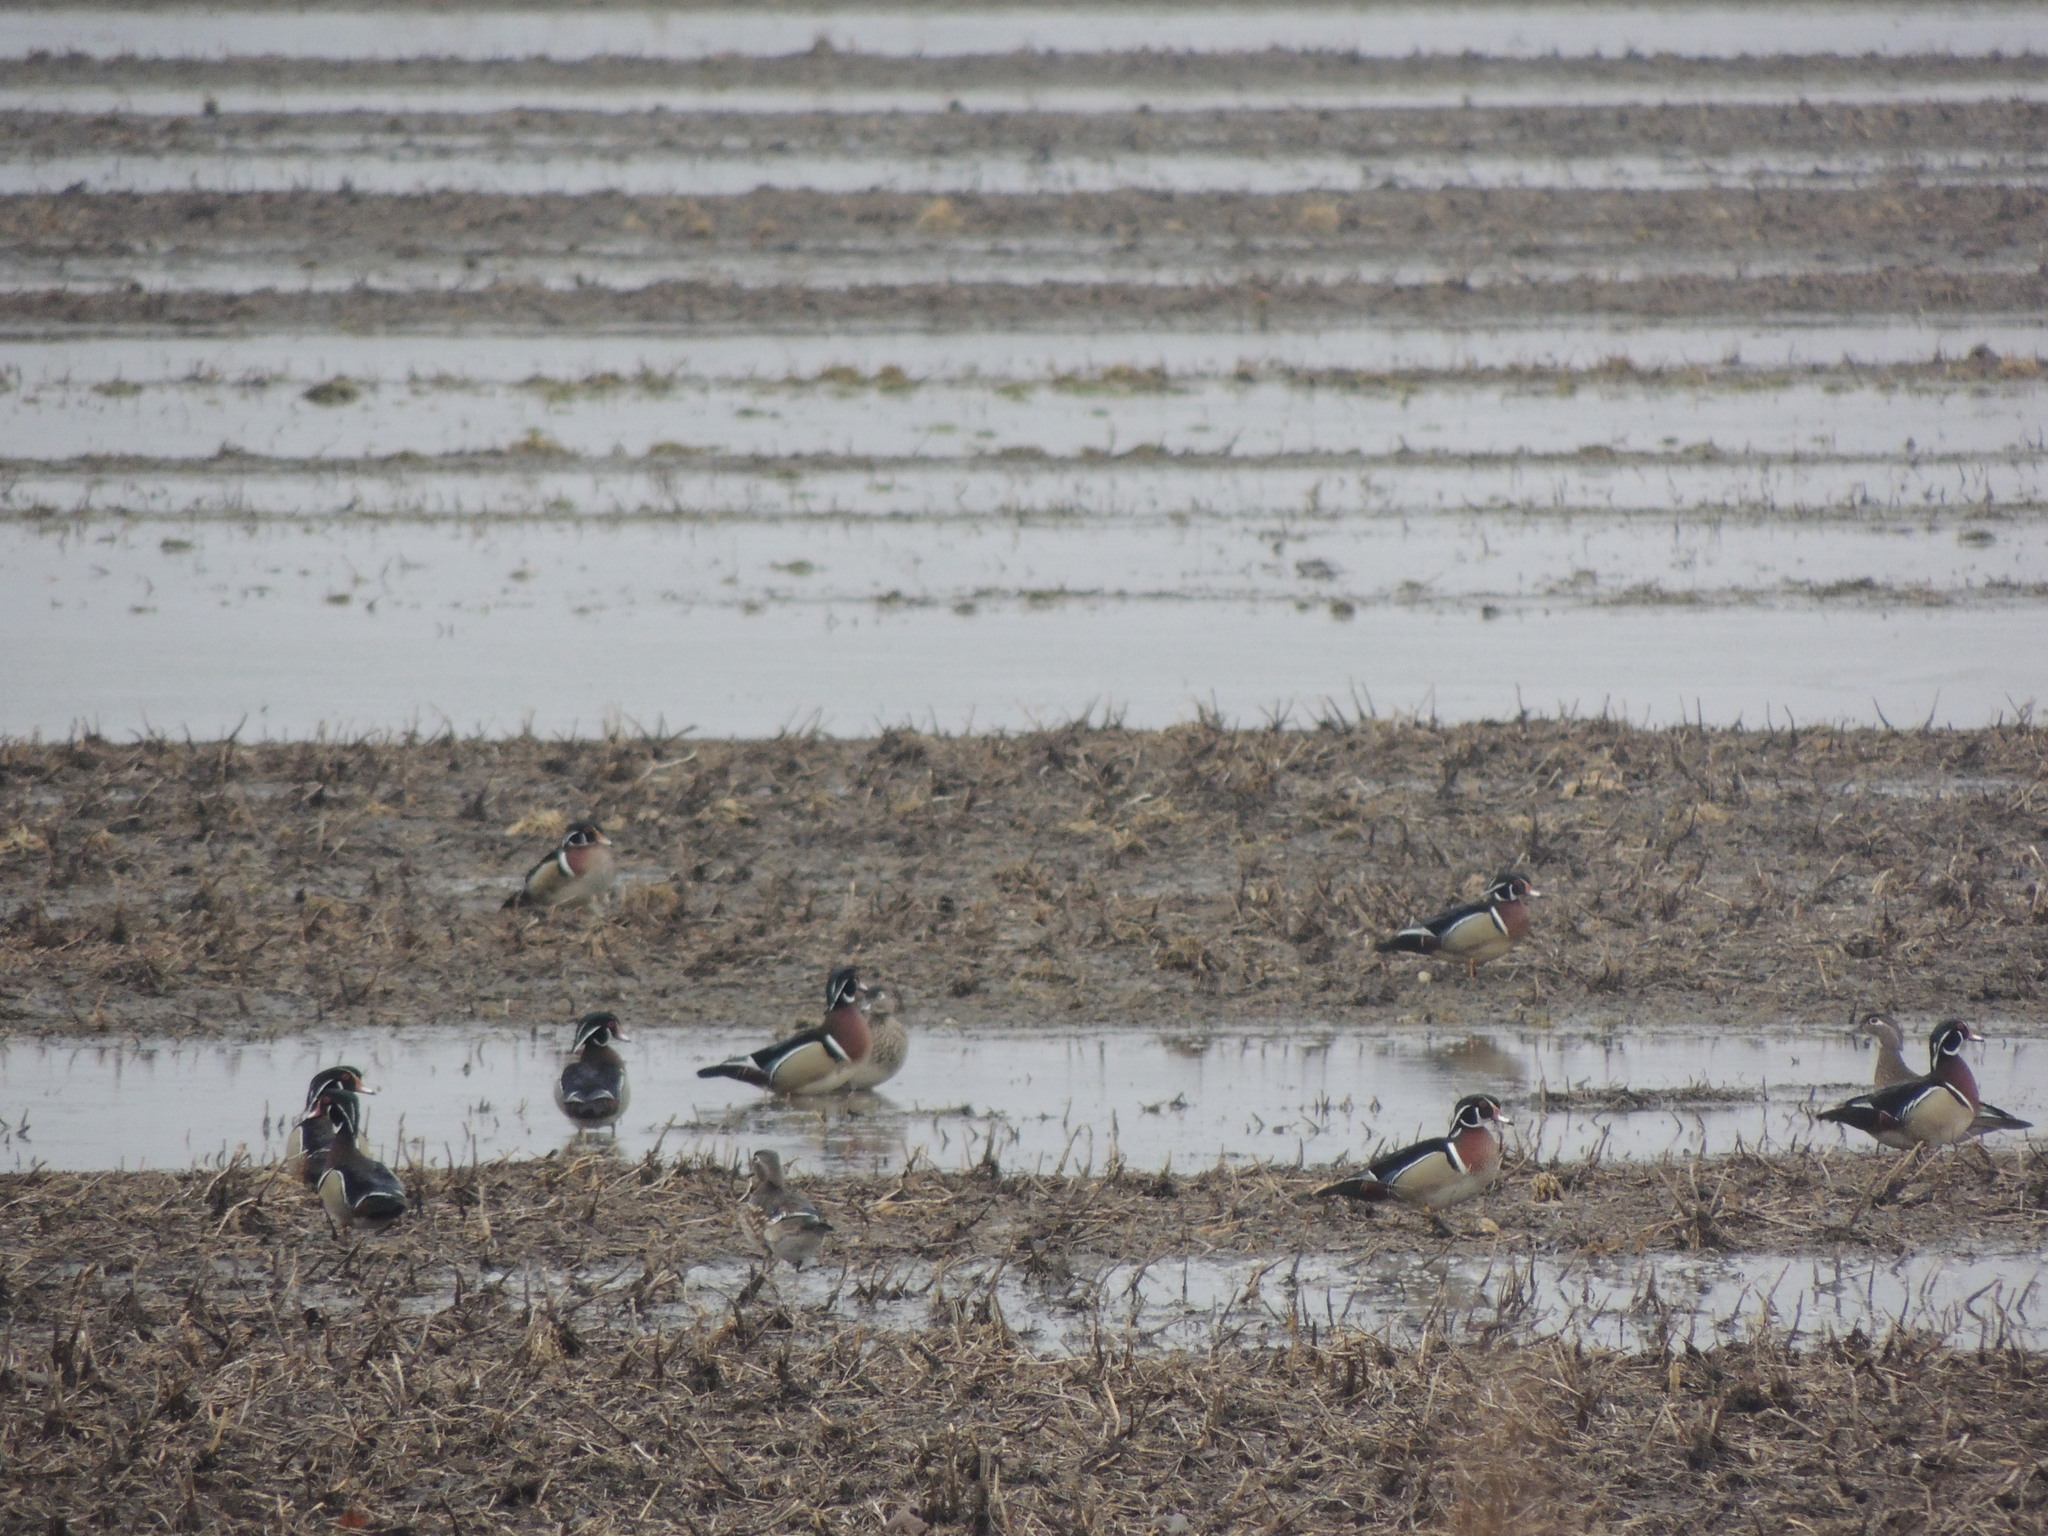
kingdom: Animalia
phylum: Chordata
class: Aves
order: Anseriformes
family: Anatidae
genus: Aix
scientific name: Aix sponsa
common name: Wood duck
